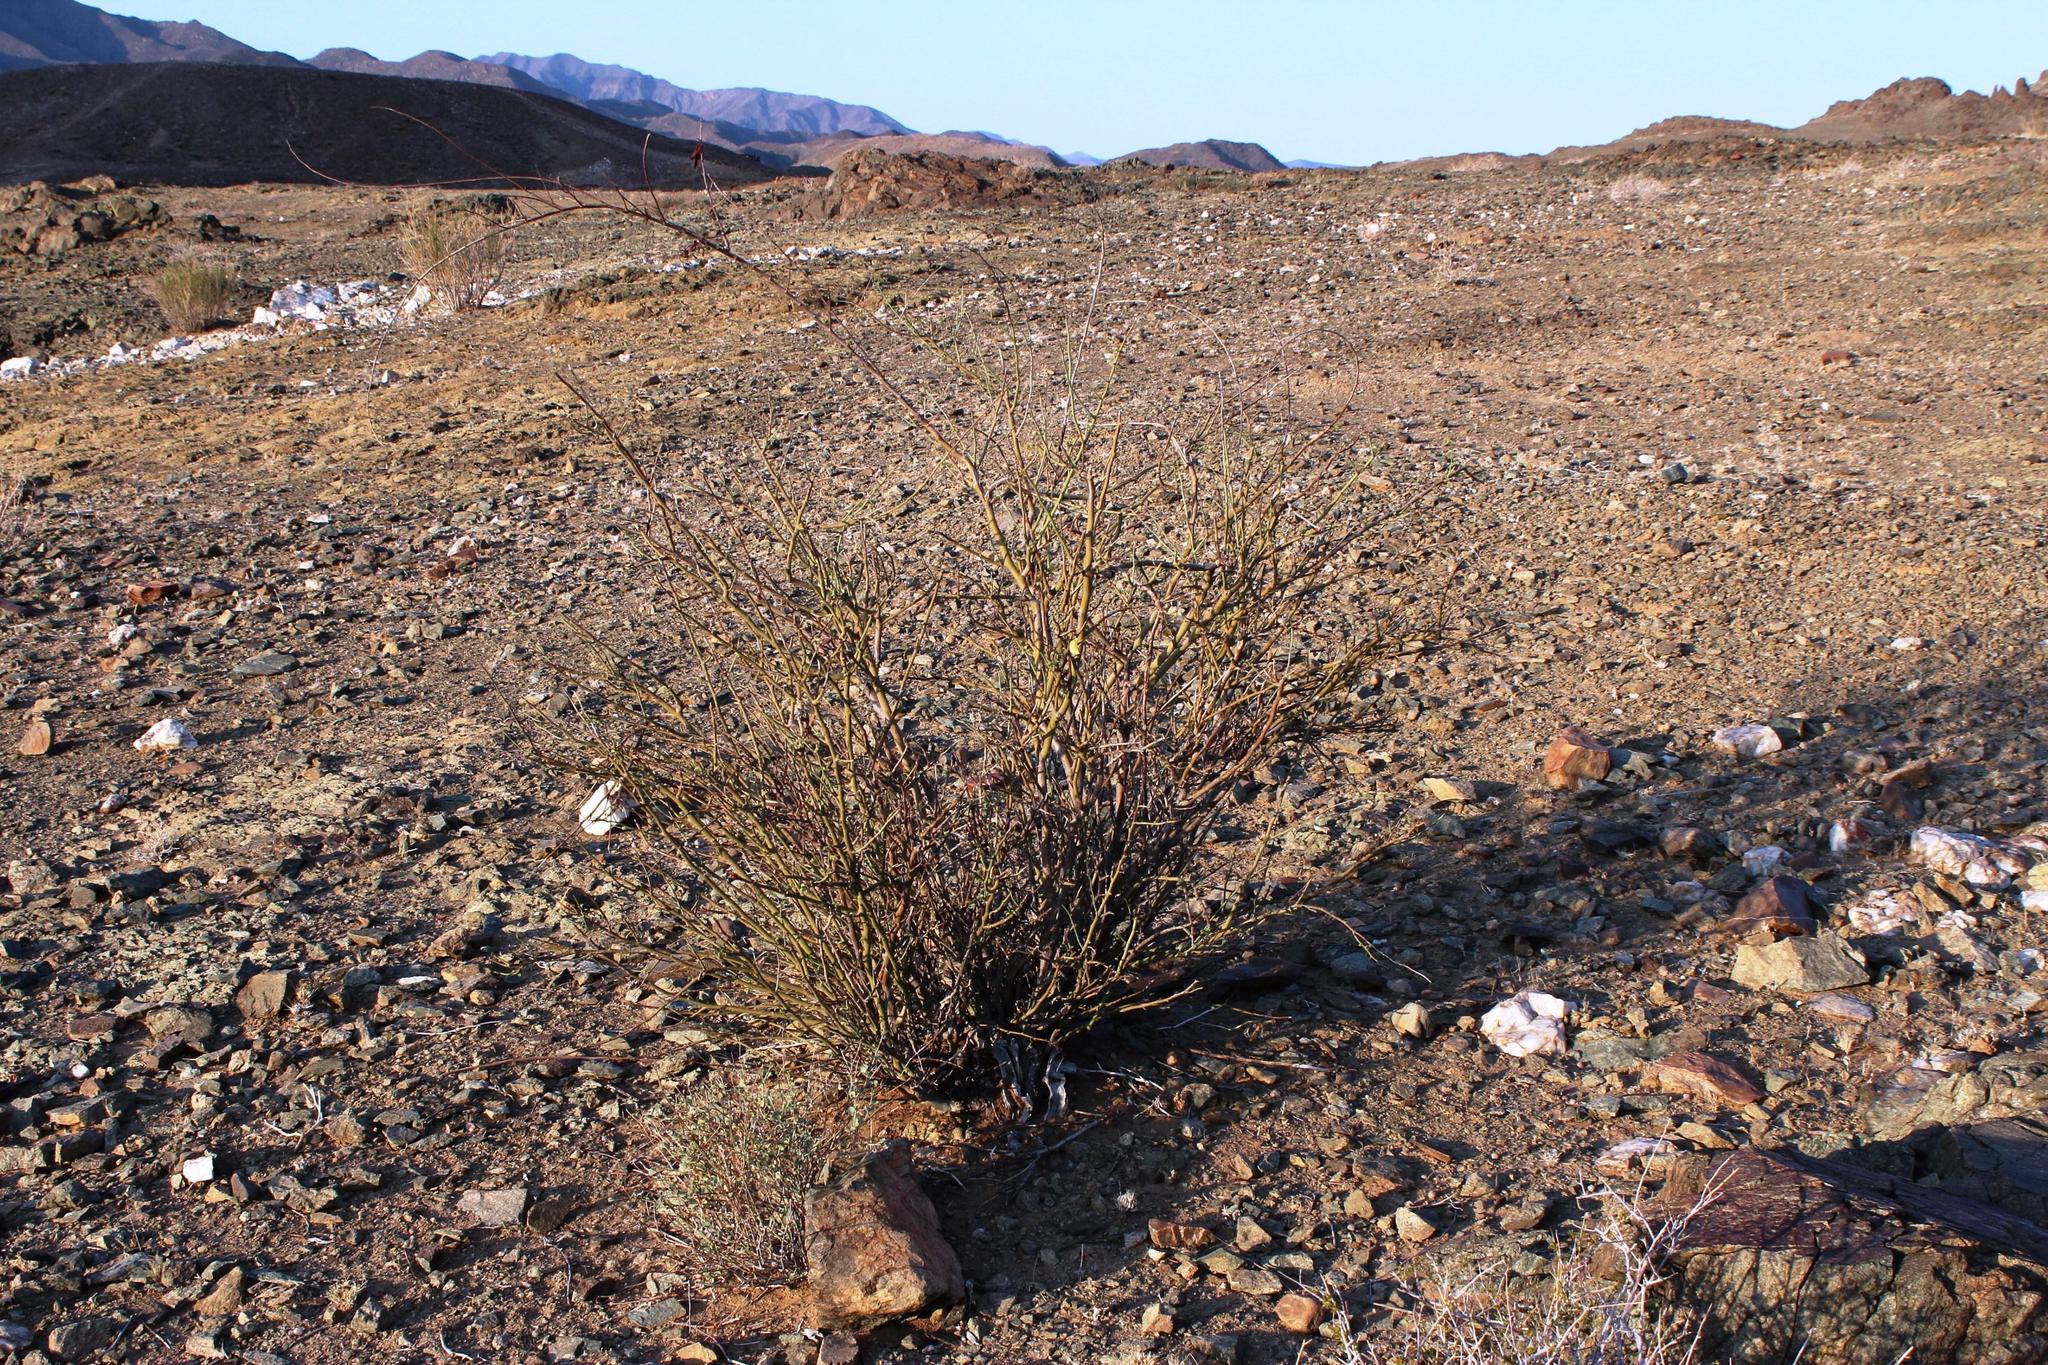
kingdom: Plantae
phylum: Tracheophyta
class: Magnoliopsida
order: Fabales
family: Fabaceae
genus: Adenolobus
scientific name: Adenolobus garipensis
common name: Butterfly-leaf
